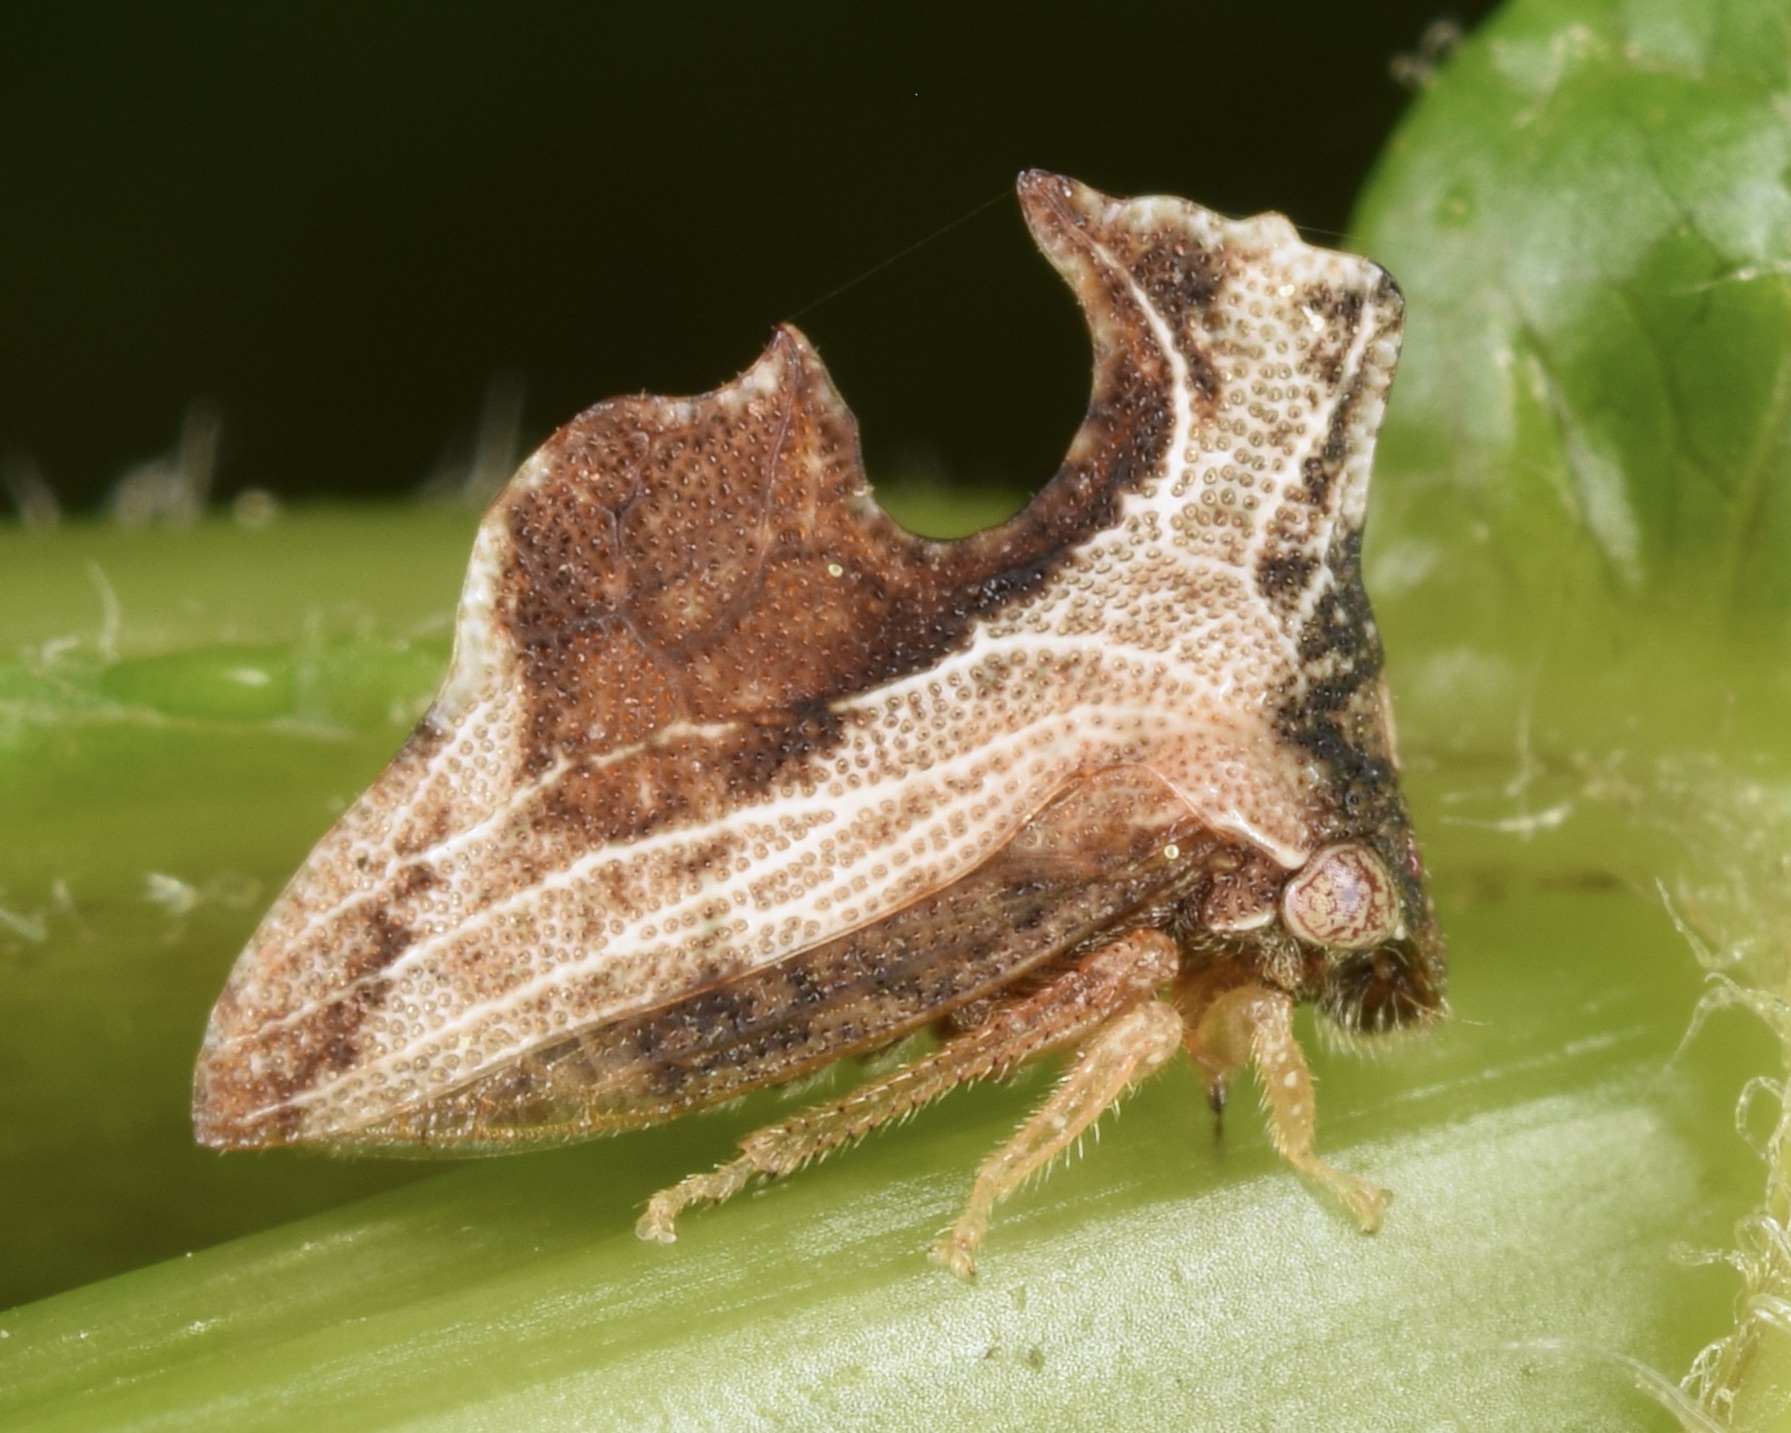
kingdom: Animalia
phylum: Arthropoda
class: Insecta
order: Hemiptera
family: Membracidae
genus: Entylia
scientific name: Entylia carinata
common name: Keeled treehopper
